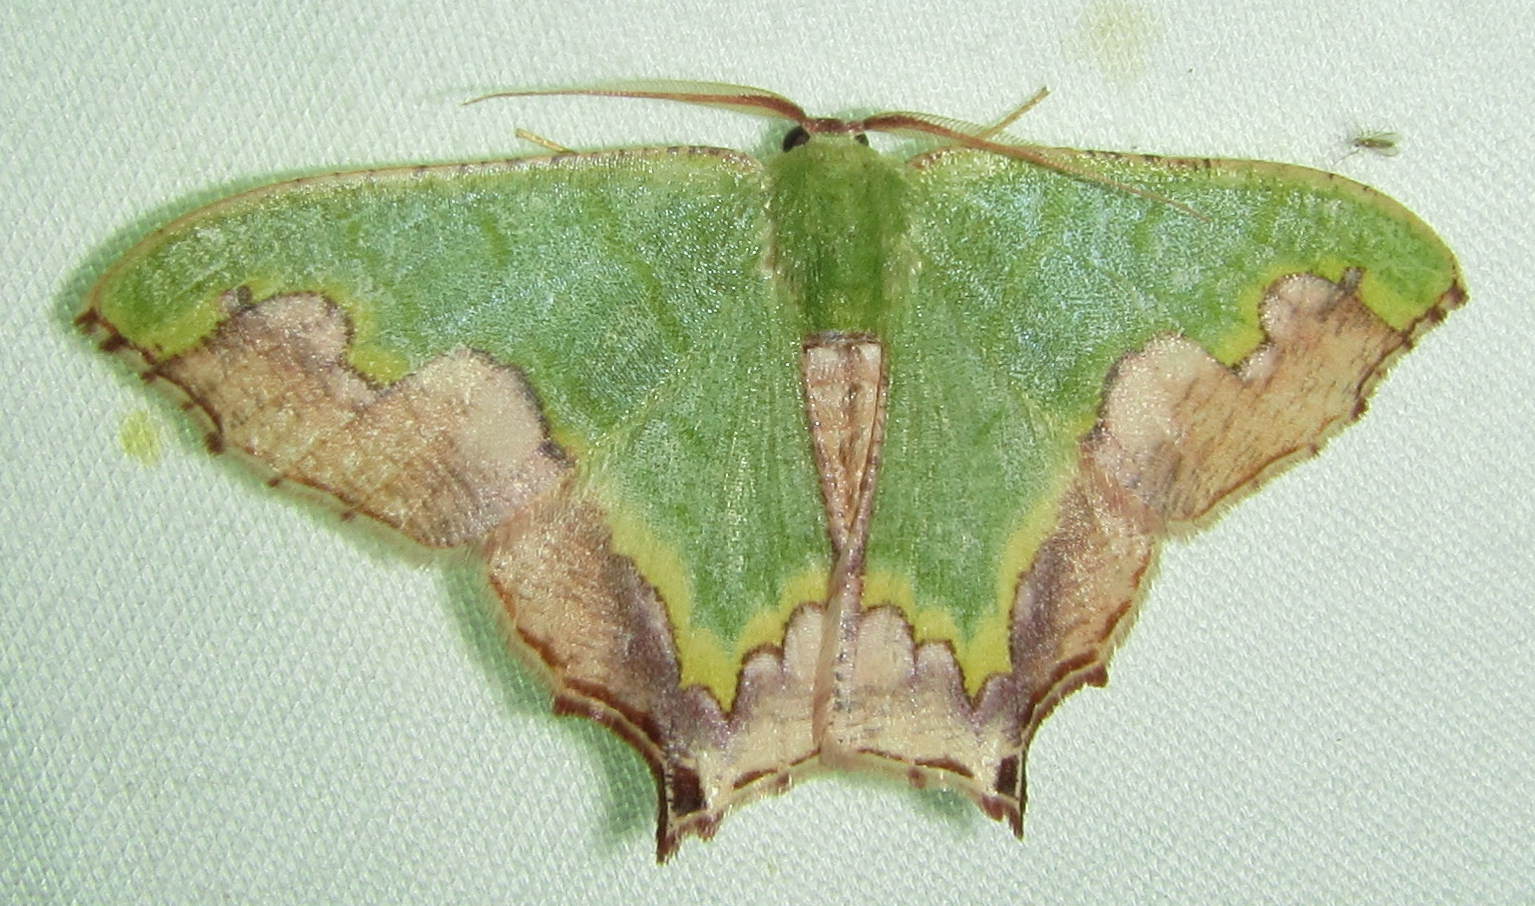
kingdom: Animalia
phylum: Arthropoda
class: Insecta
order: Lepidoptera
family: Geometridae
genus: Antharmostes
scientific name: Antharmostes papilio
